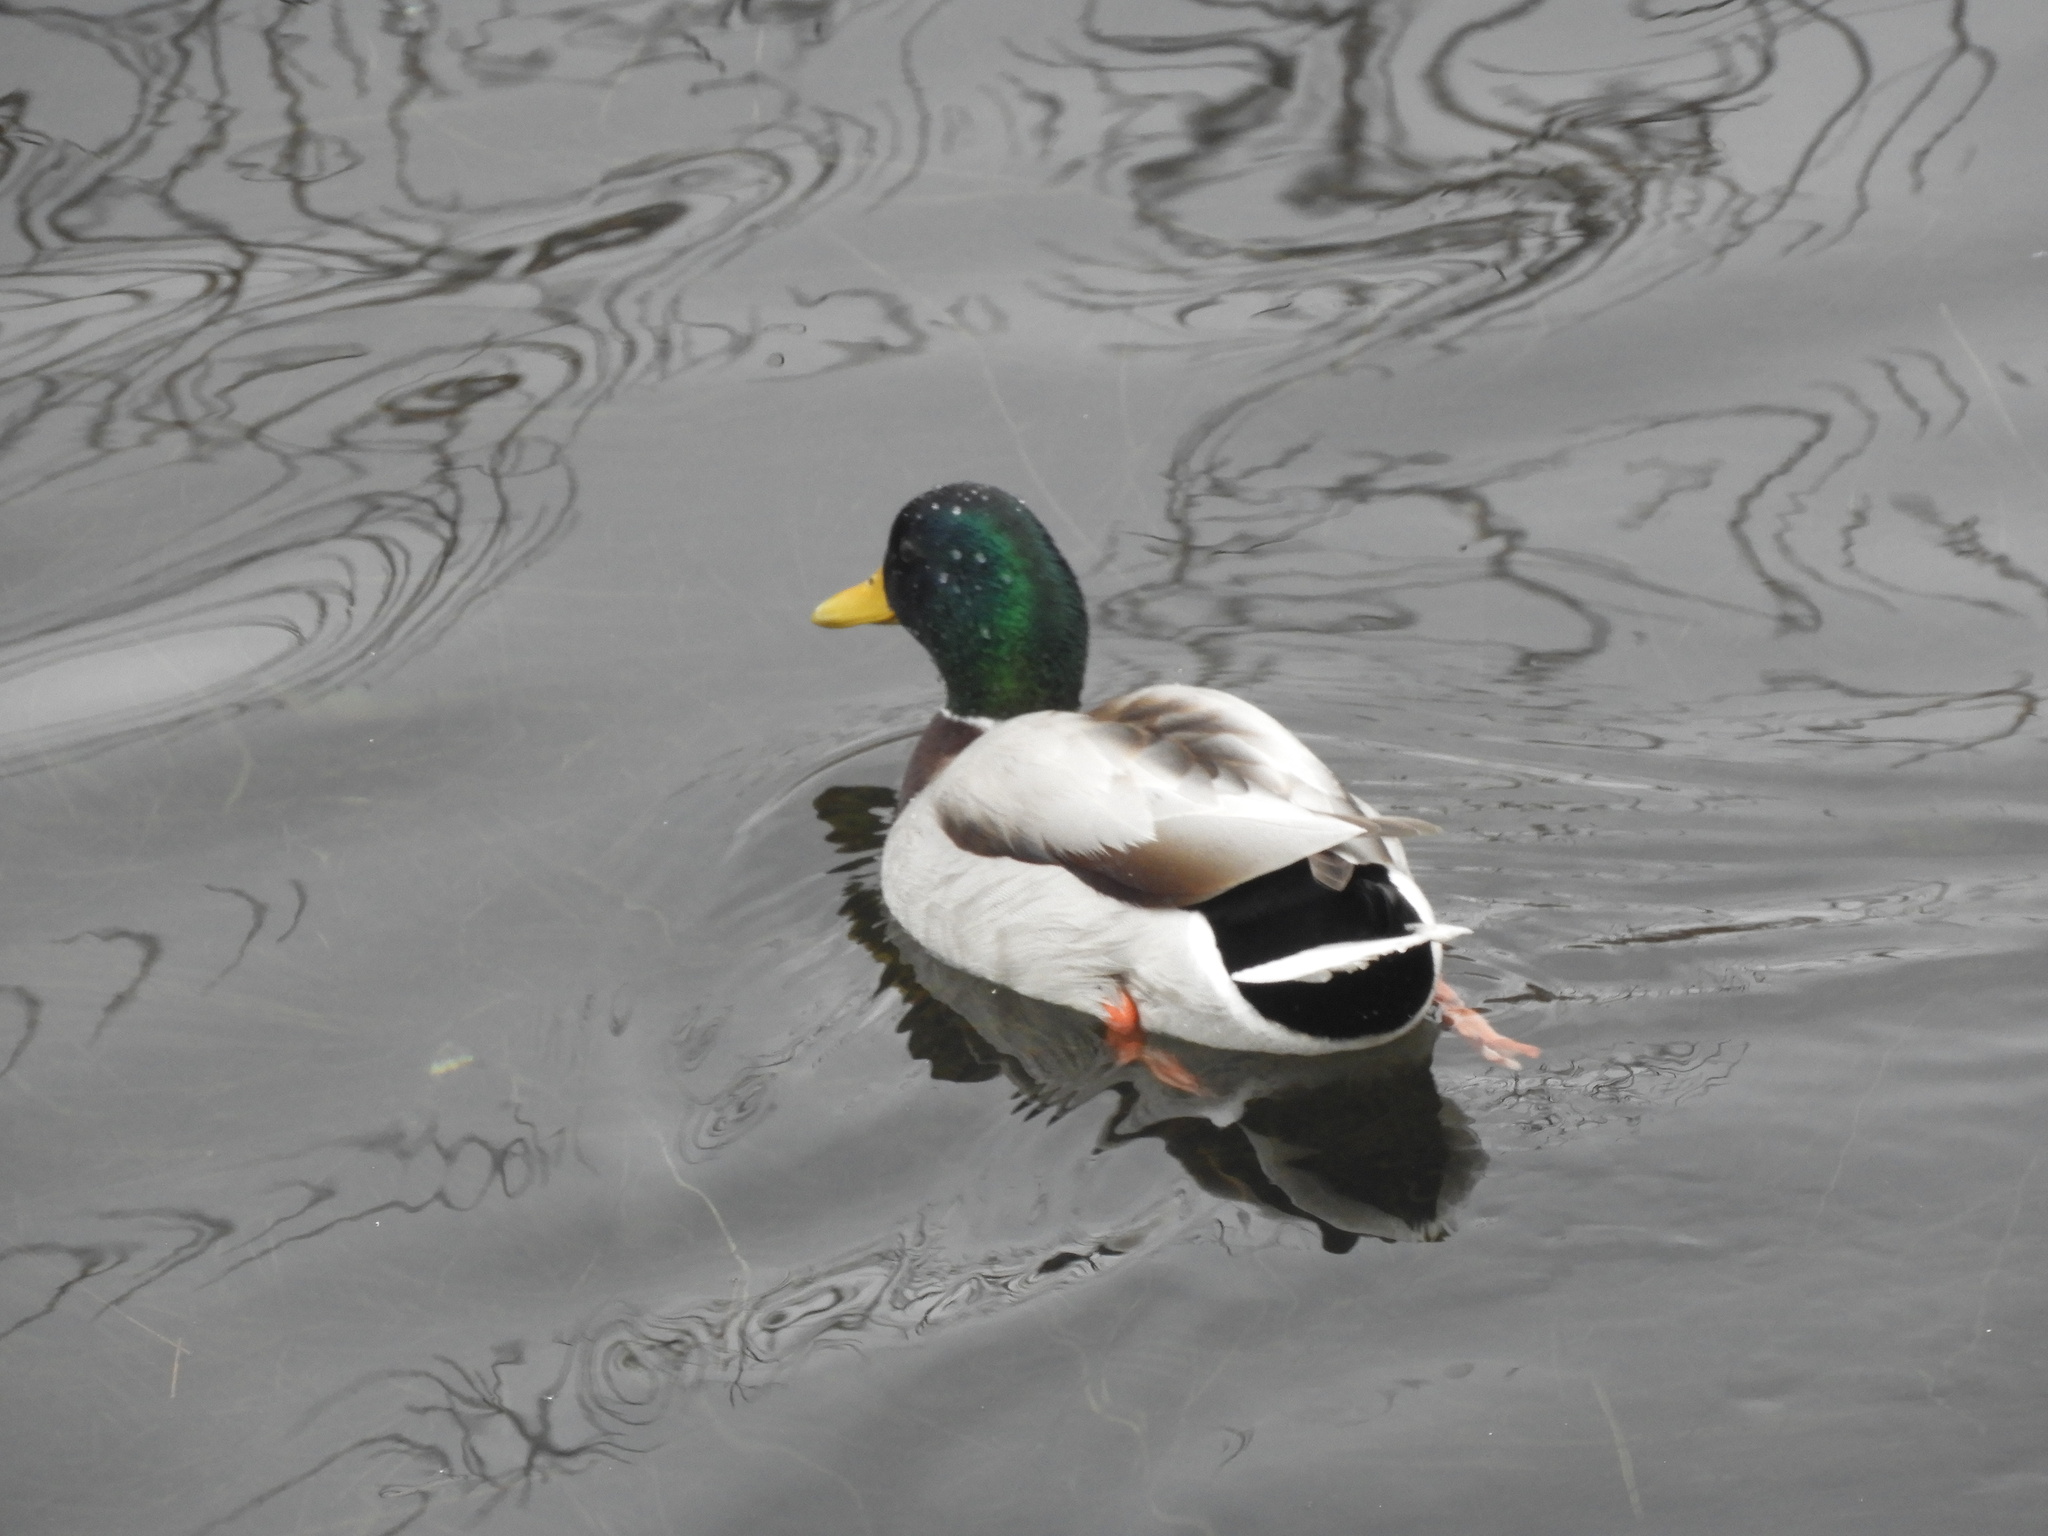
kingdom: Animalia
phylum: Chordata
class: Aves
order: Anseriformes
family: Anatidae
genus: Anas
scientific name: Anas platyrhynchos
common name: Mallard
